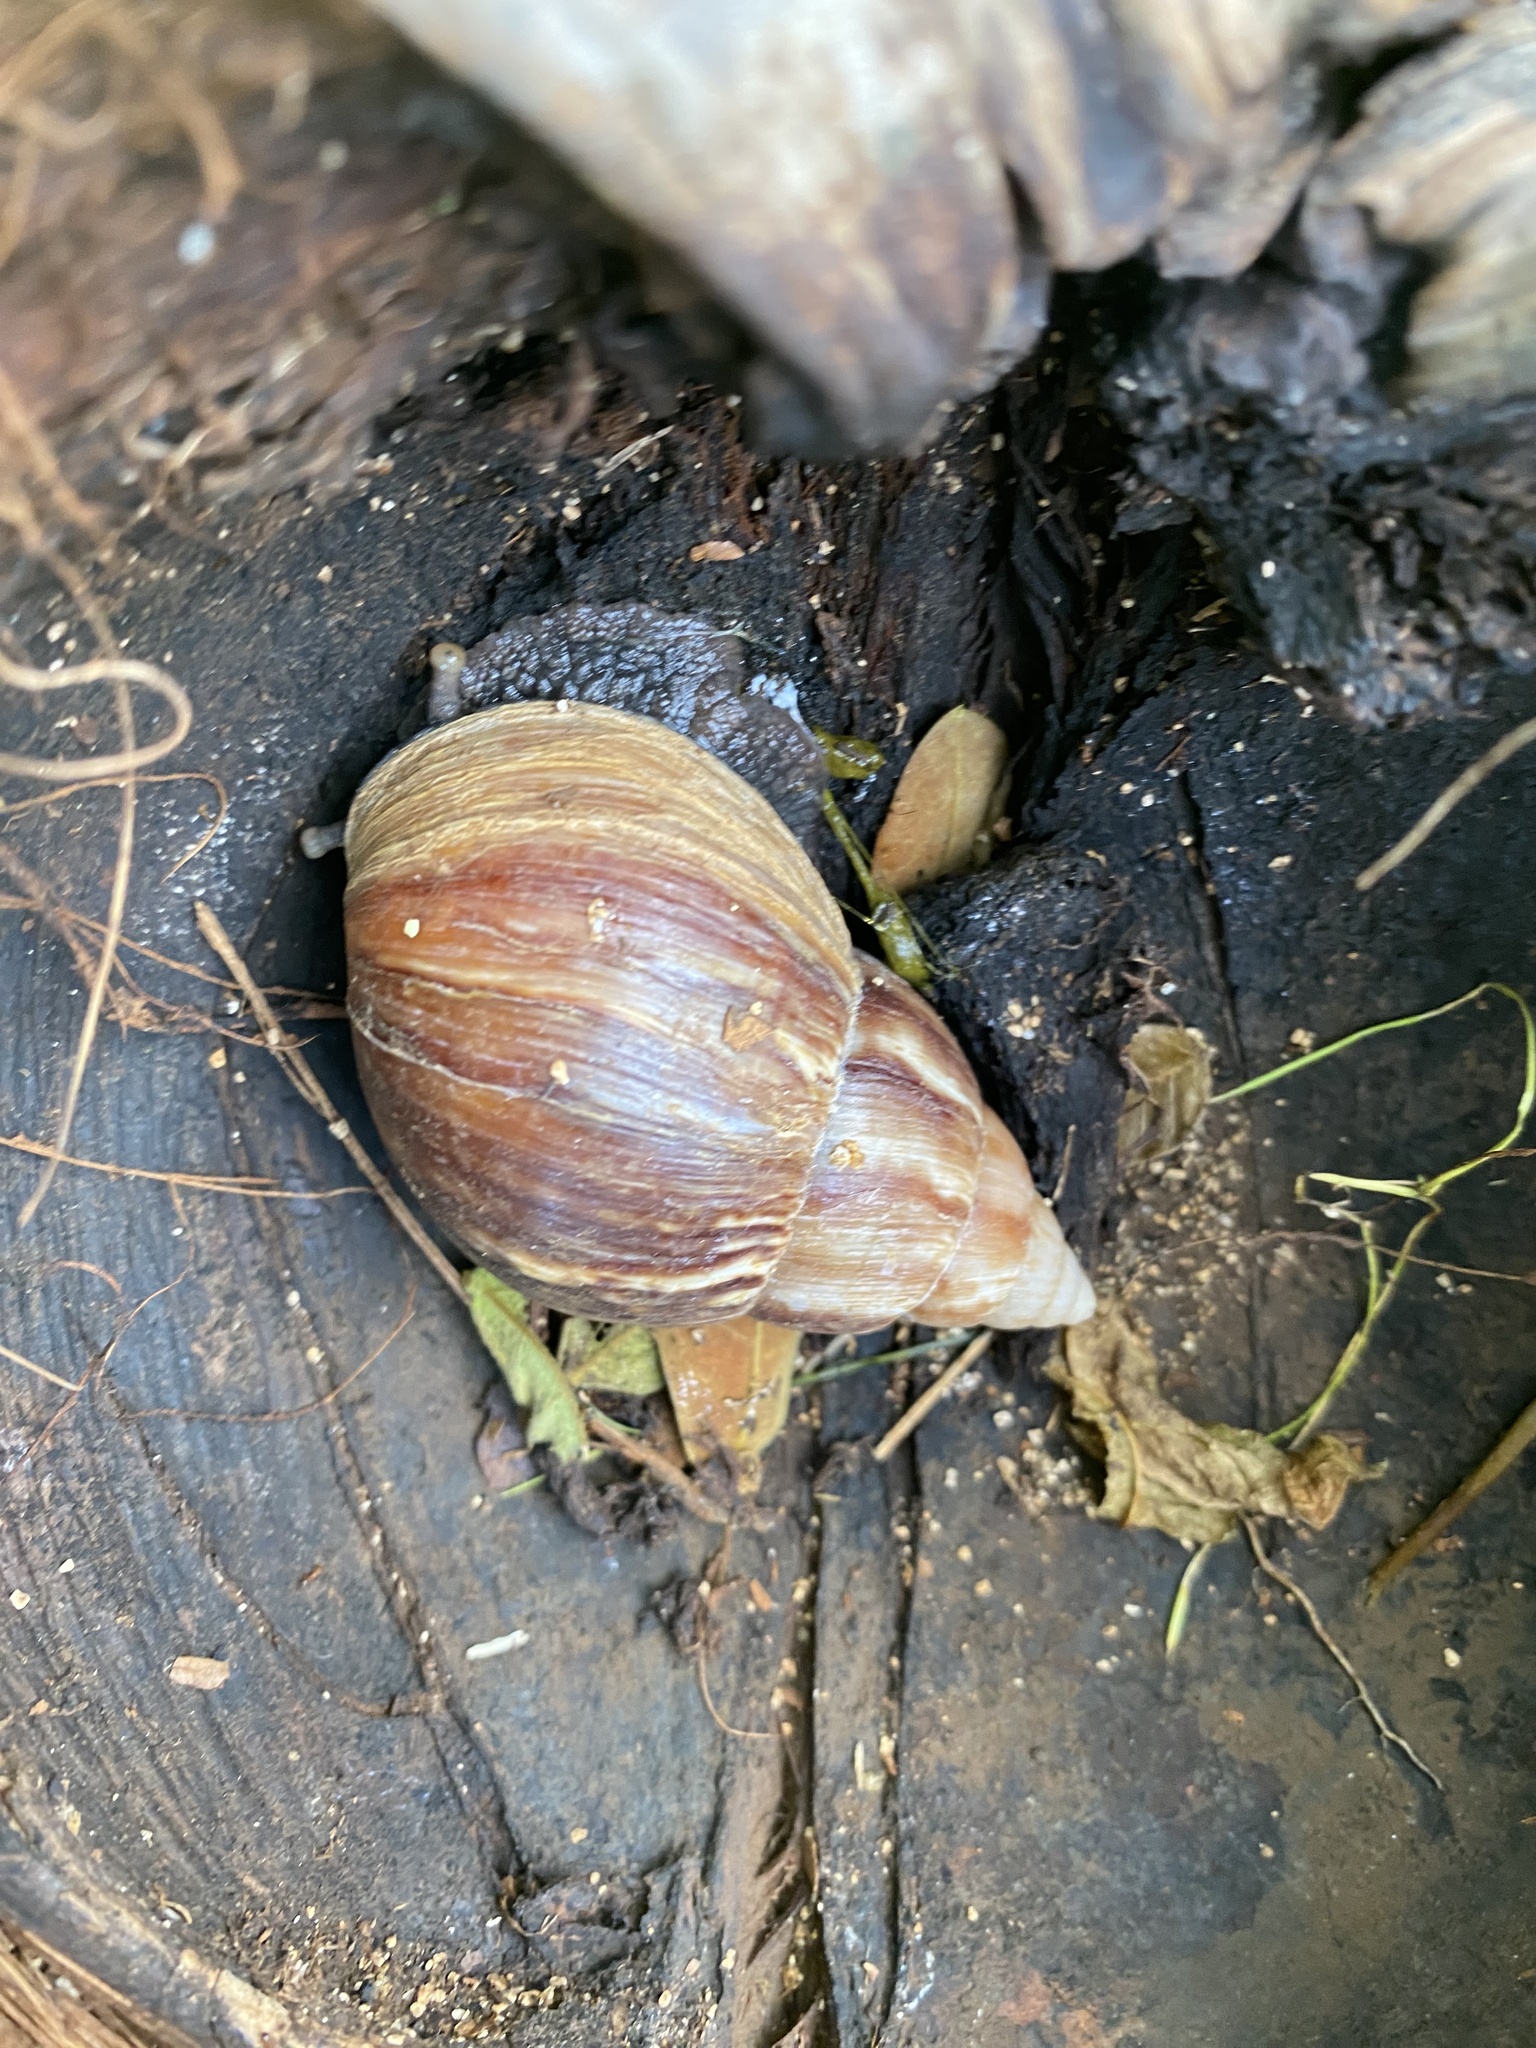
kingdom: Animalia
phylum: Mollusca
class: Gastropoda
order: Stylommatophora
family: Achatinidae
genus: Lissachatina
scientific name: Lissachatina fulica
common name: Giant african snail
